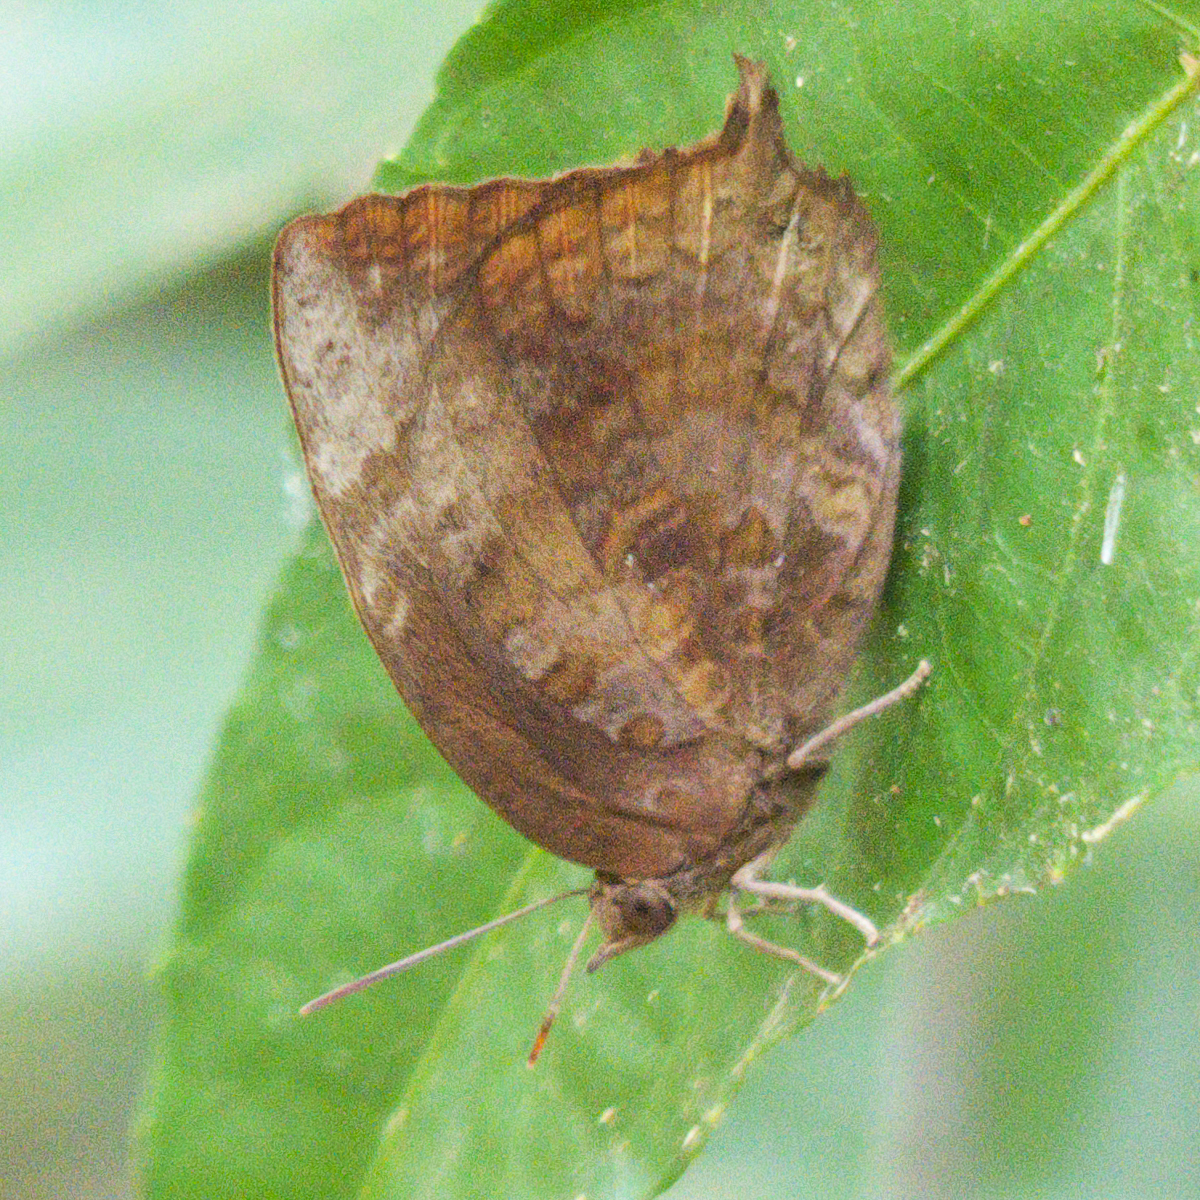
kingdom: Animalia
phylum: Arthropoda
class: Insecta
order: Lepidoptera
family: Lycaenidae
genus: Arhopala
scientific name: Arhopala centaurus
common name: Dull oak-blue
